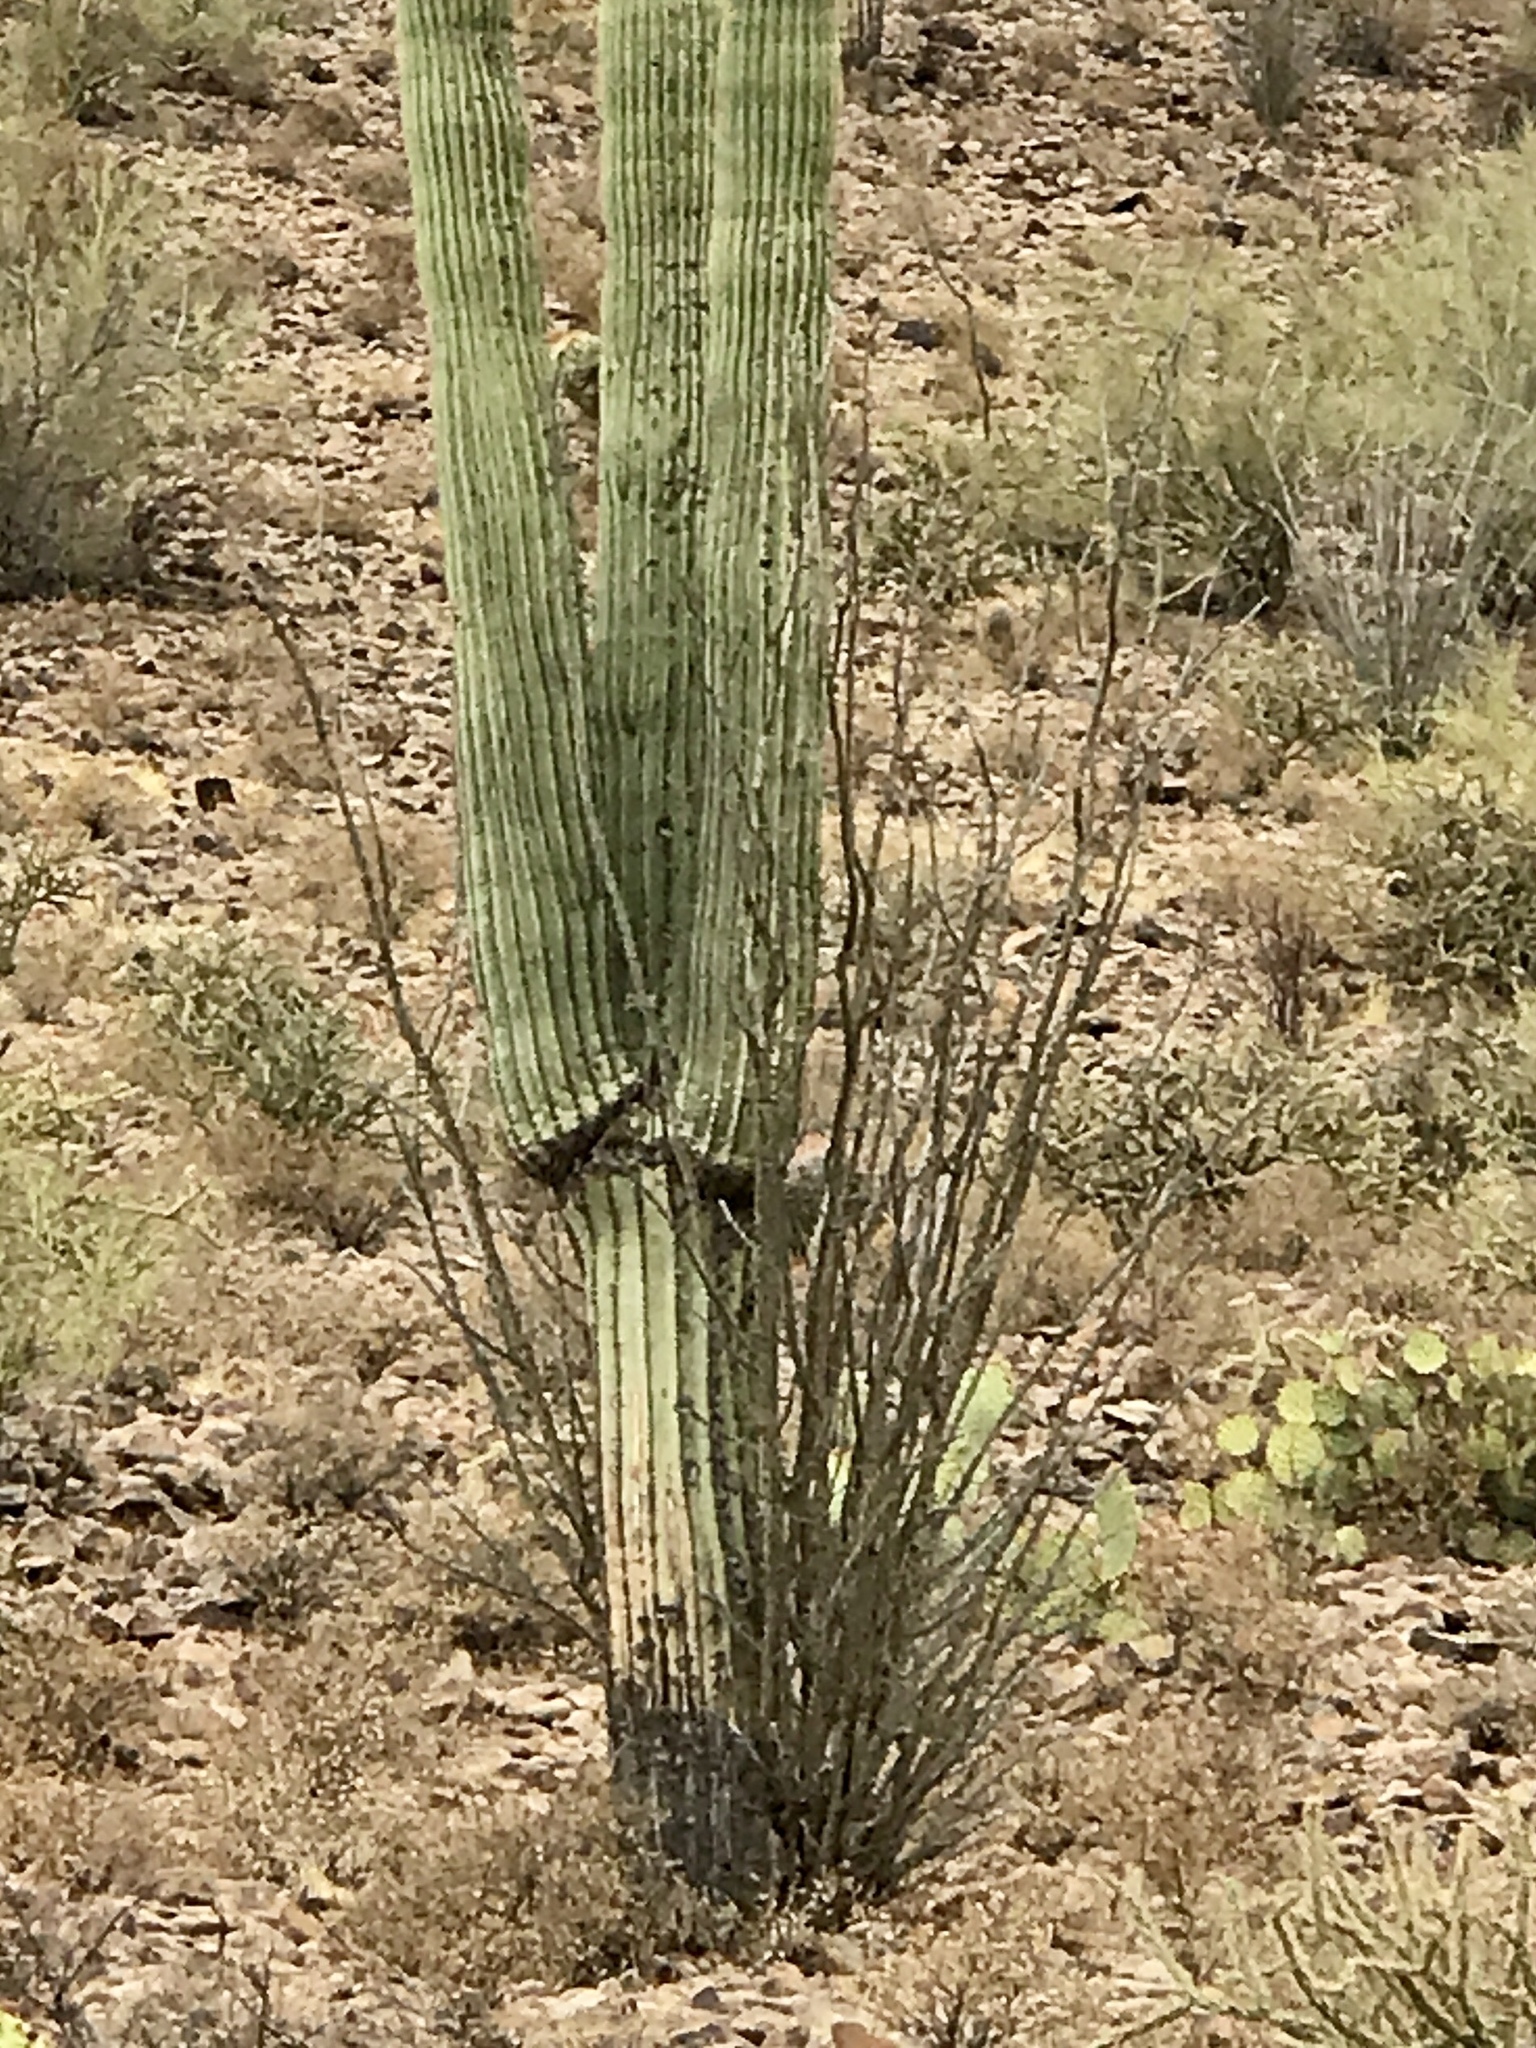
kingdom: Plantae
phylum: Tracheophyta
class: Magnoliopsida
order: Ericales
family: Fouquieriaceae
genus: Fouquieria
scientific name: Fouquieria splendens
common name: Vine-cactus
